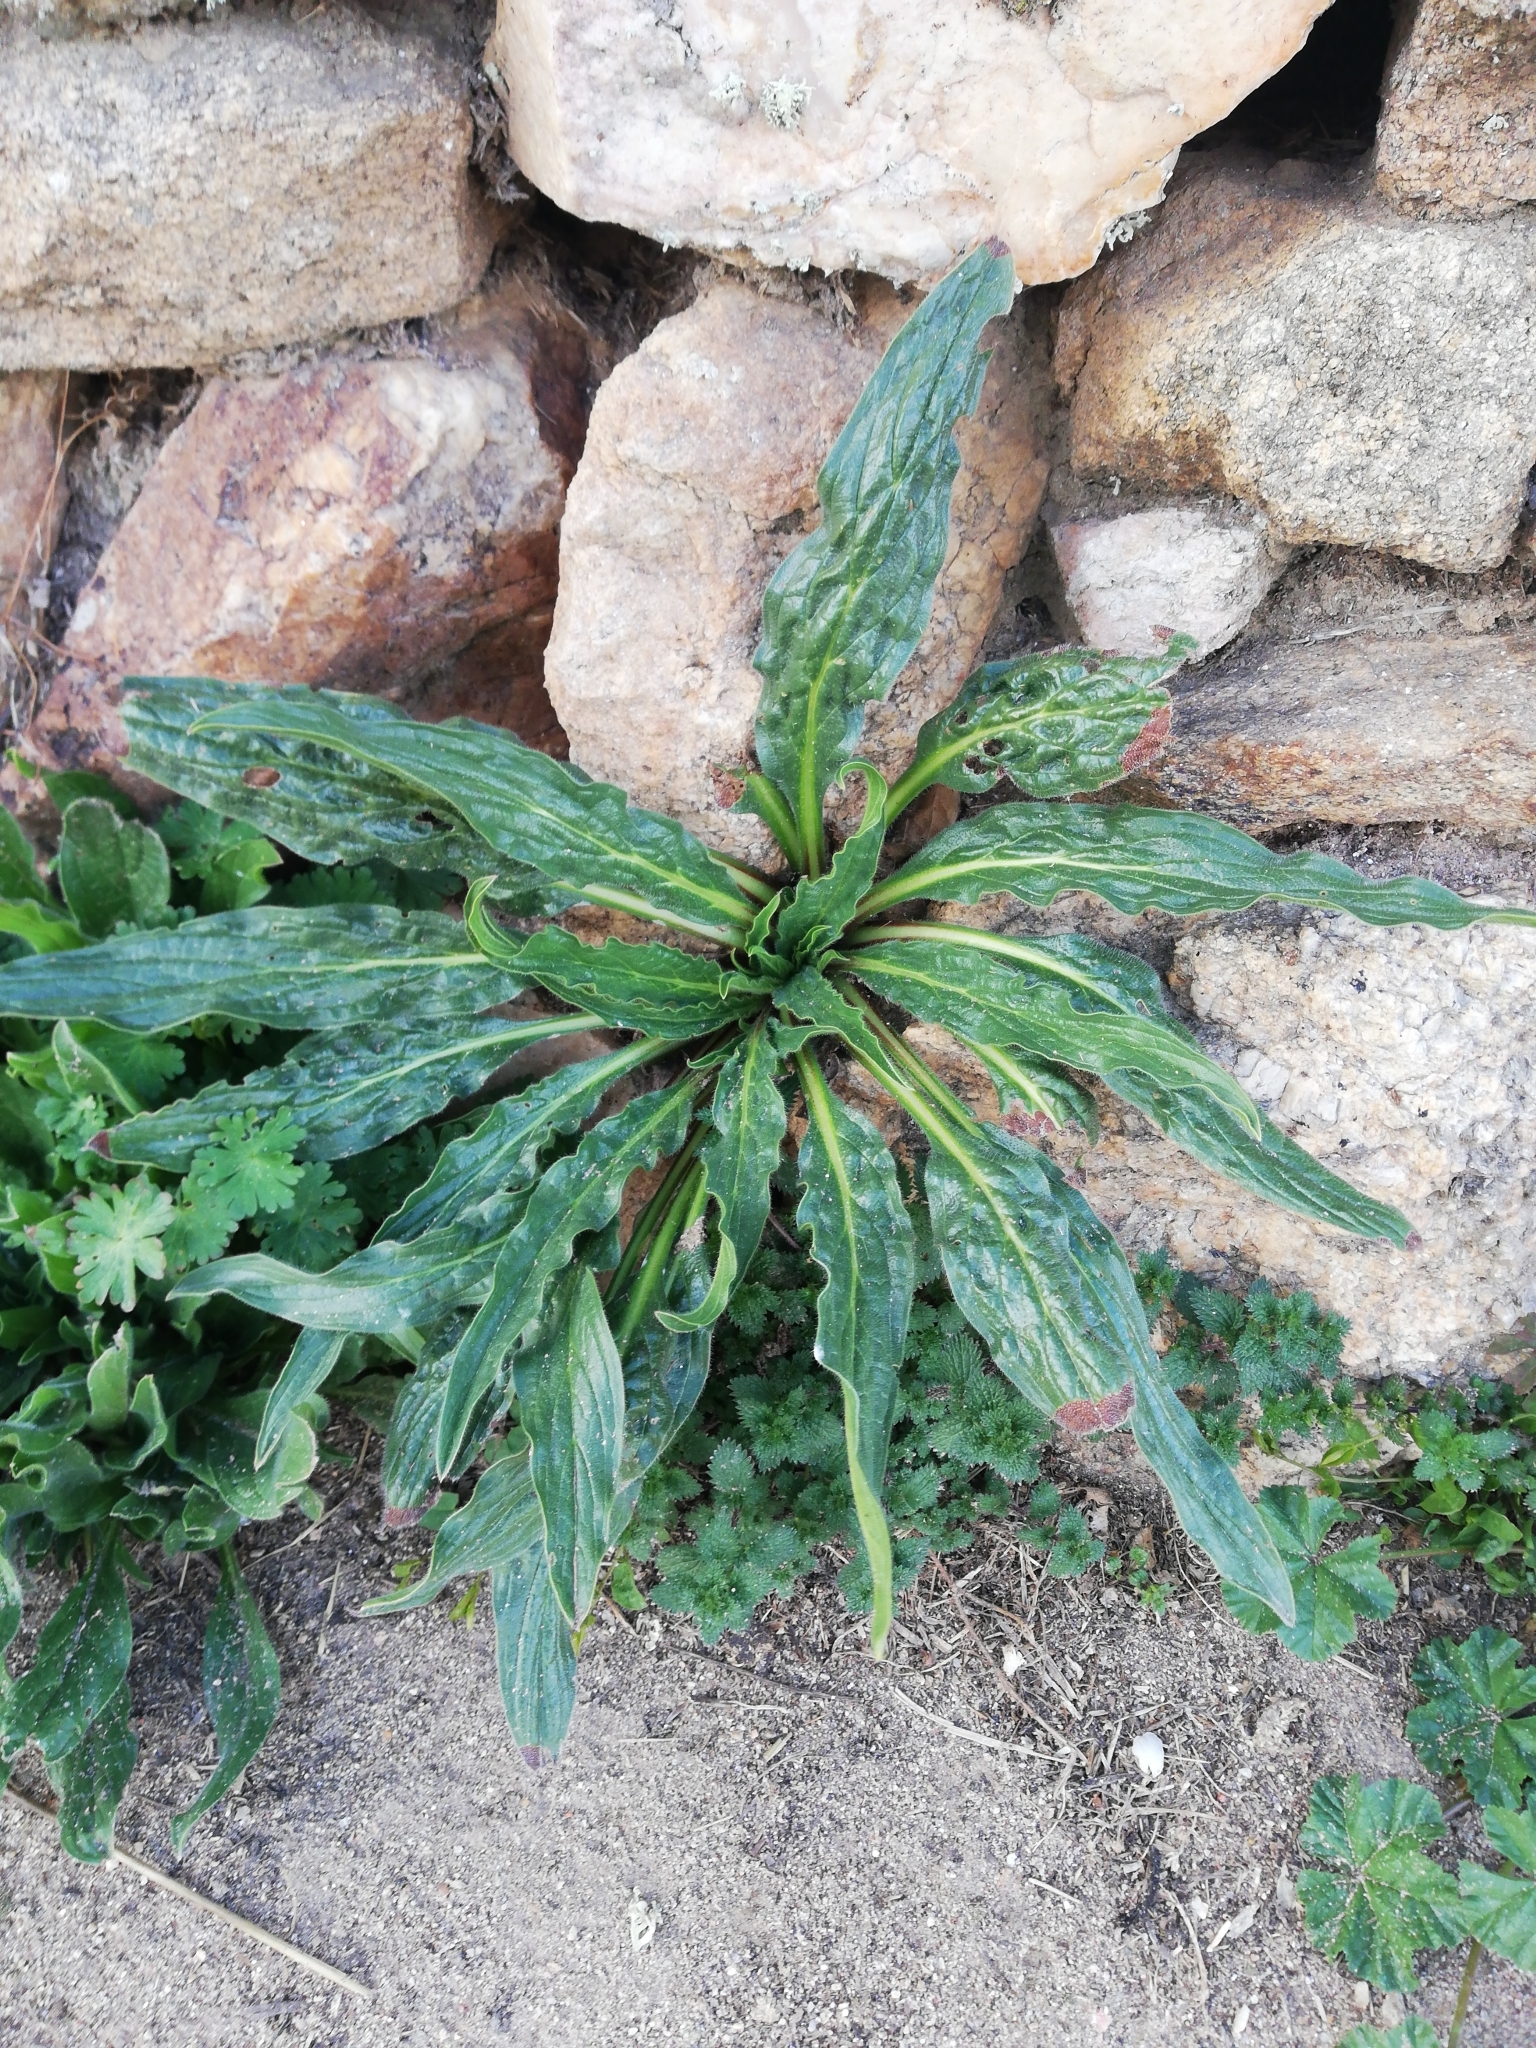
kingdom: Plantae
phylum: Tracheophyta
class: Magnoliopsida
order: Brassicales
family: Resedaceae
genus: Reseda
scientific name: Reseda luteola
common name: Weld
